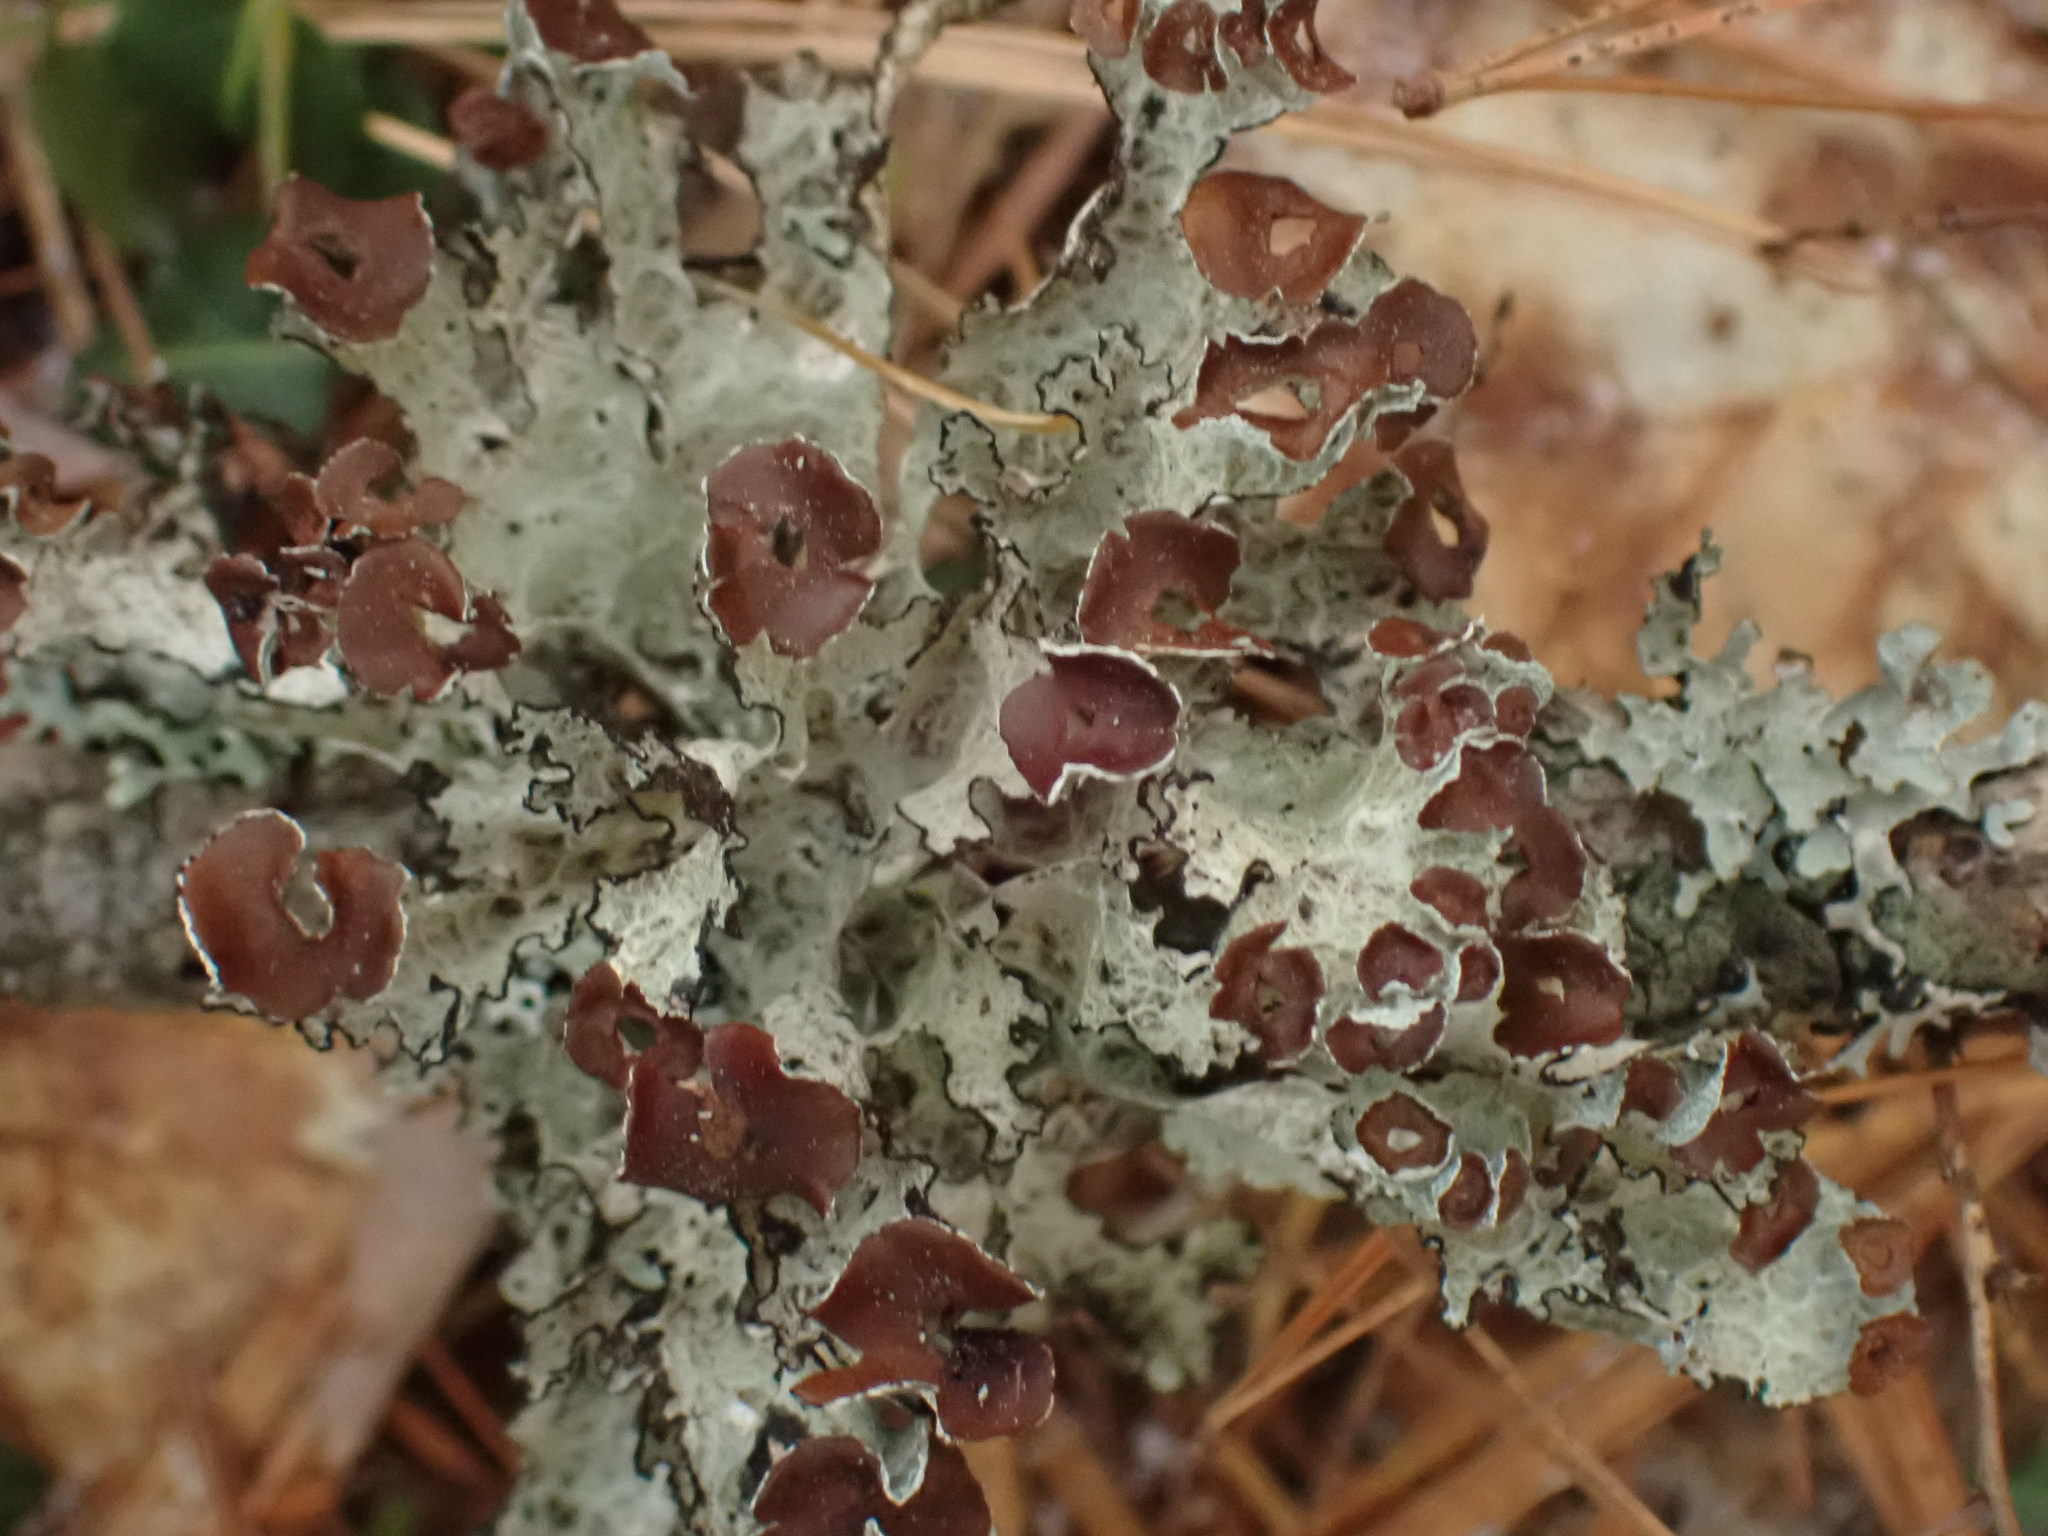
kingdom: Fungi
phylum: Ascomycota
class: Lecanoromycetes
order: Lecanorales
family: Parmeliaceae
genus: Platismatia
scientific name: Platismatia tuckermanii
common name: Crumpled rag lichen
